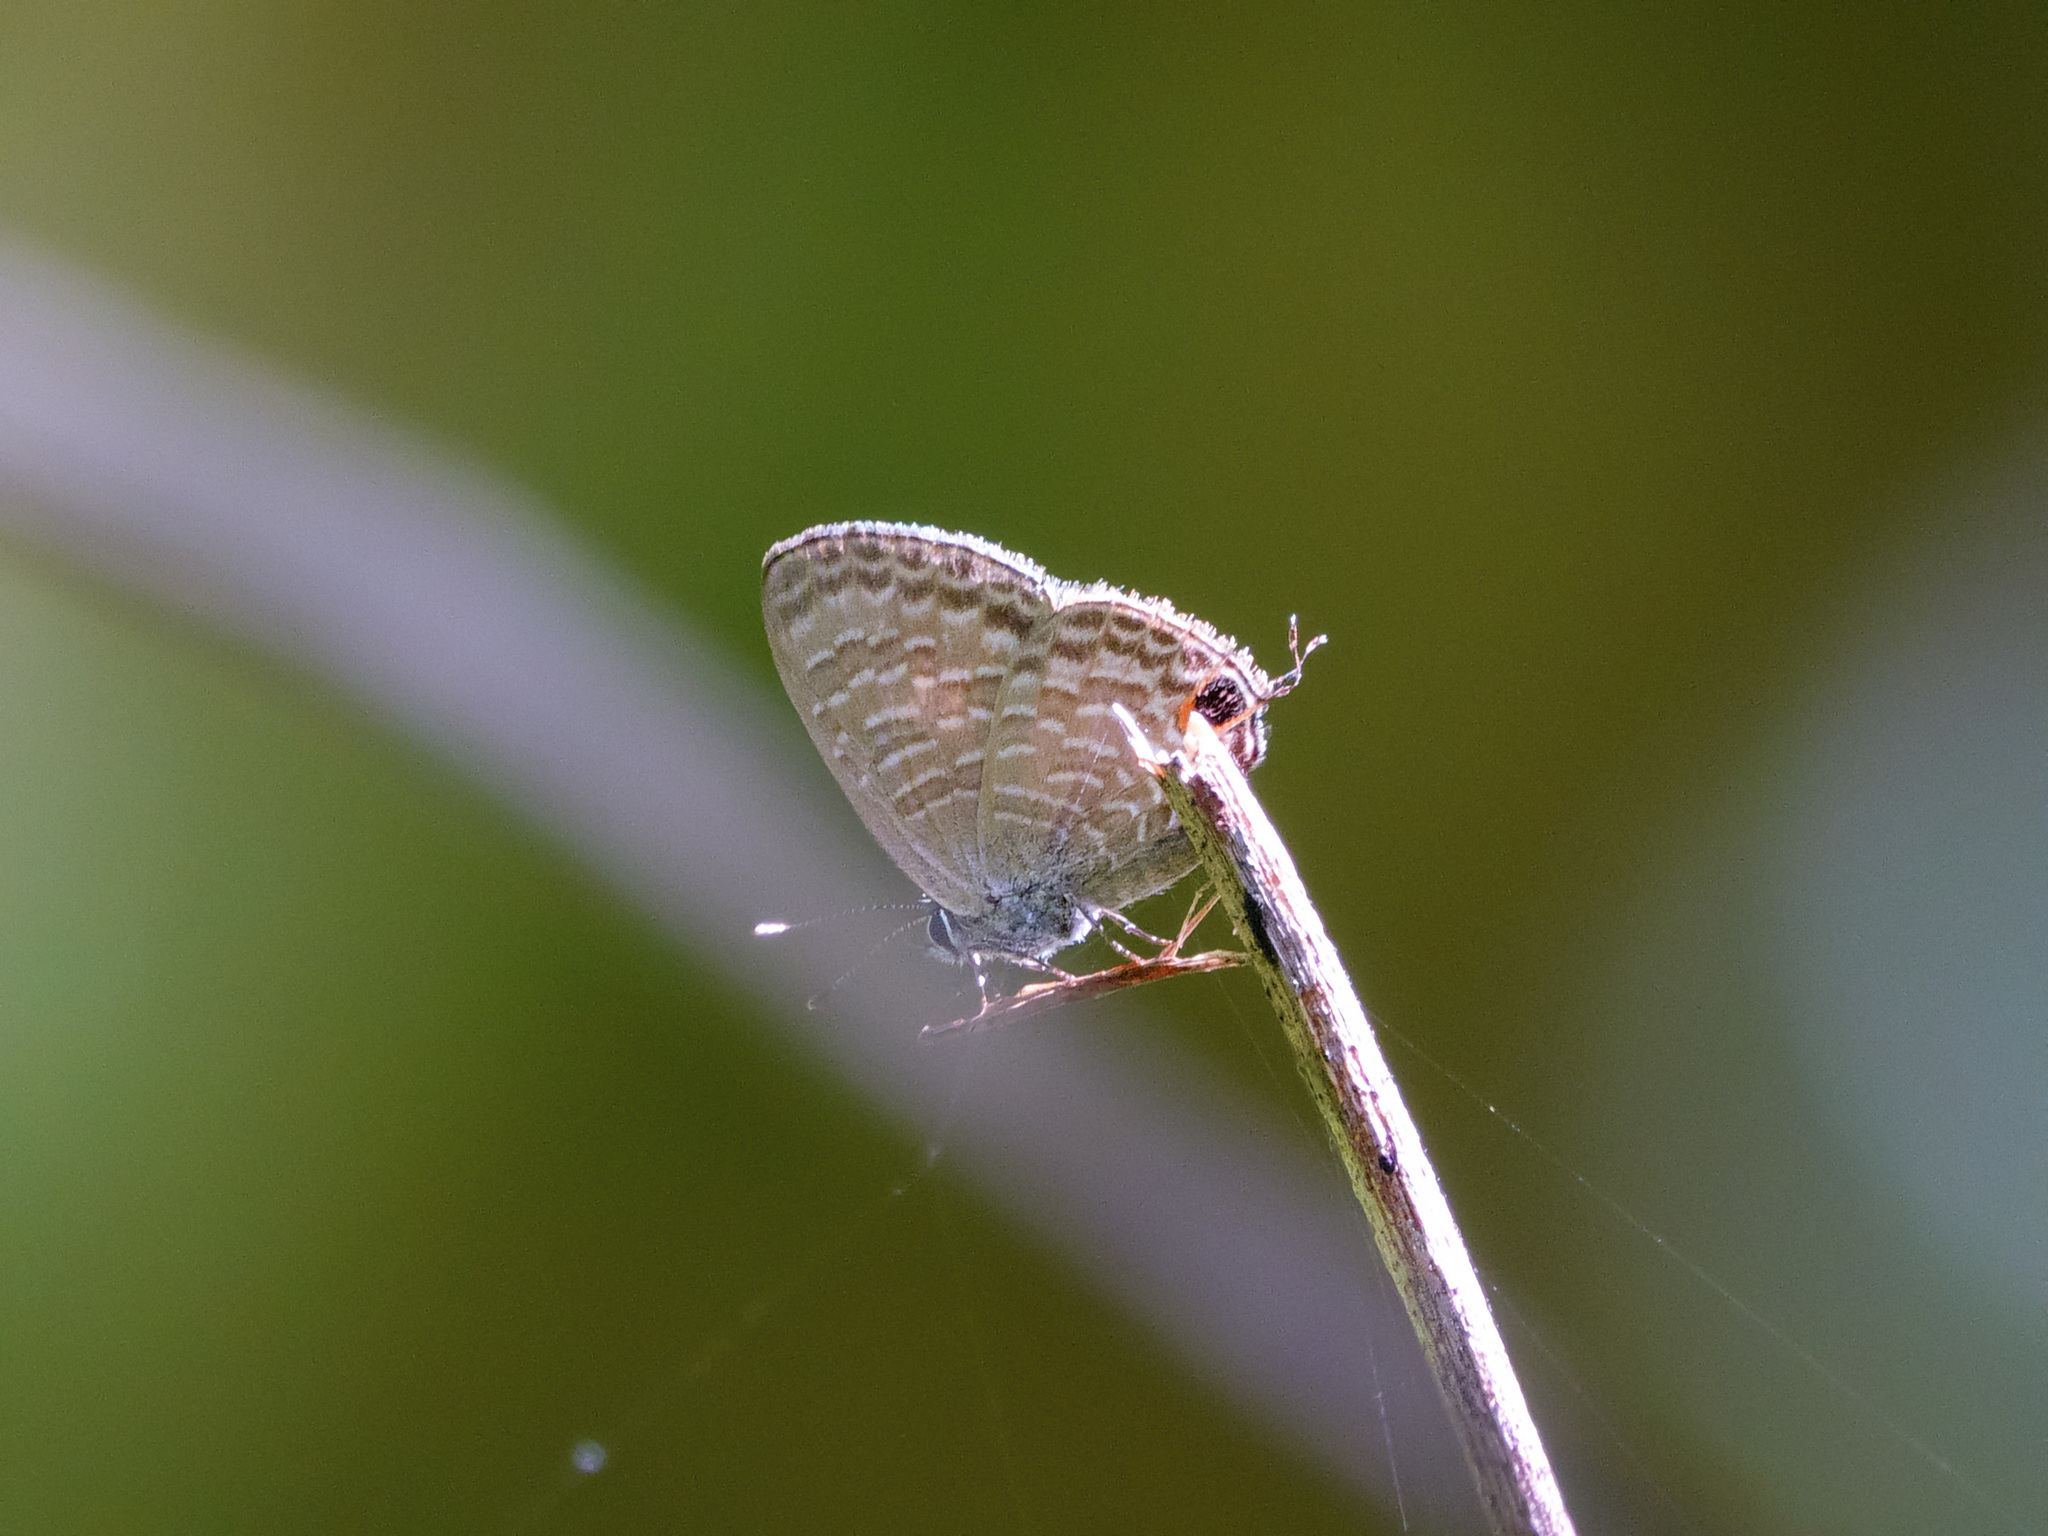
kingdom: Animalia
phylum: Arthropoda
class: Insecta
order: Lepidoptera
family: Lycaenidae
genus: Ionolyce
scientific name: Ionolyce helicon
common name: Pointed line blue
